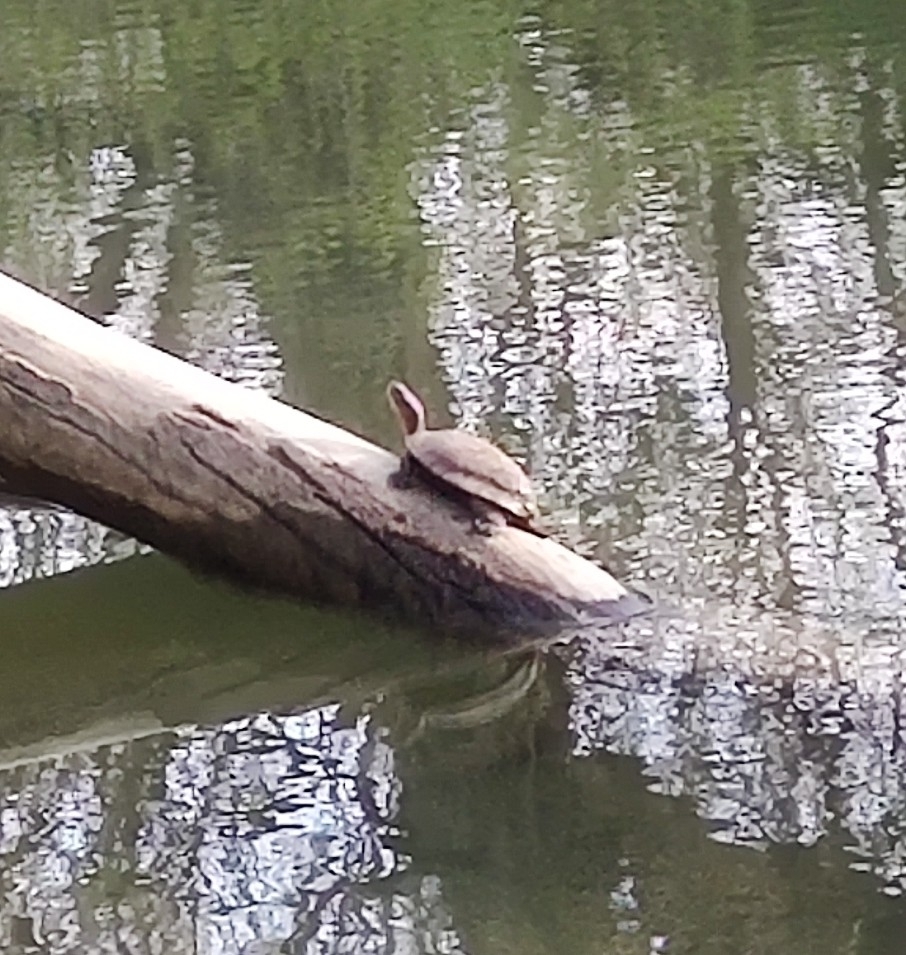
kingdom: Animalia
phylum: Chordata
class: Testudines
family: Emydidae
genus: Actinemys
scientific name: Actinemys marmorata
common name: Western pond turtle
